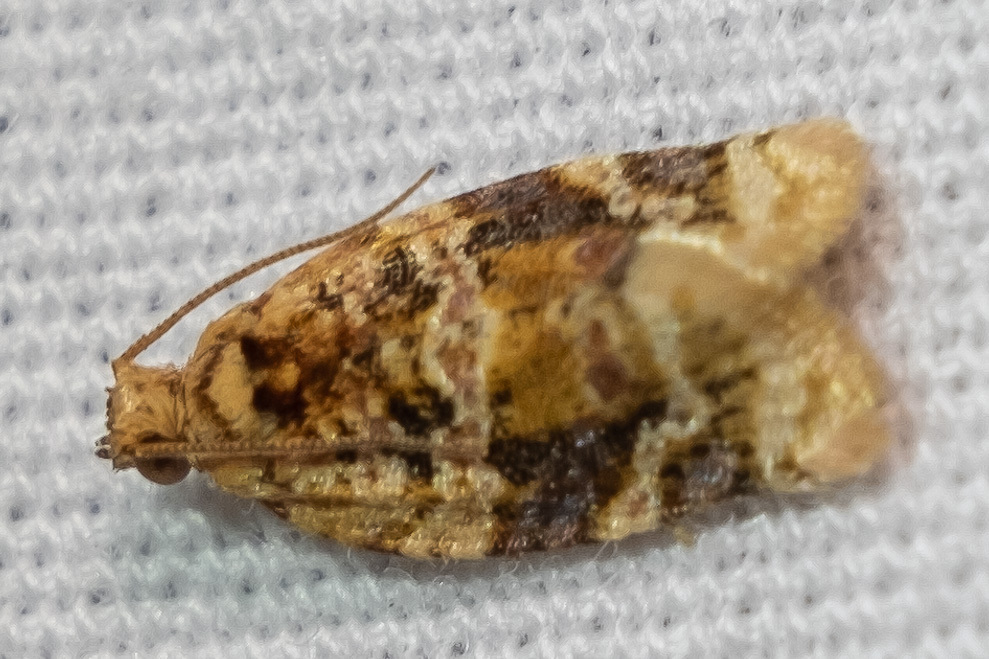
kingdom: Animalia
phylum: Arthropoda
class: Insecta
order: Lepidoptera
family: Tortricidae
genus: Argyrotaenia
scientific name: Argyrotaenia velutinana
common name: Red-banded leafroller moth
